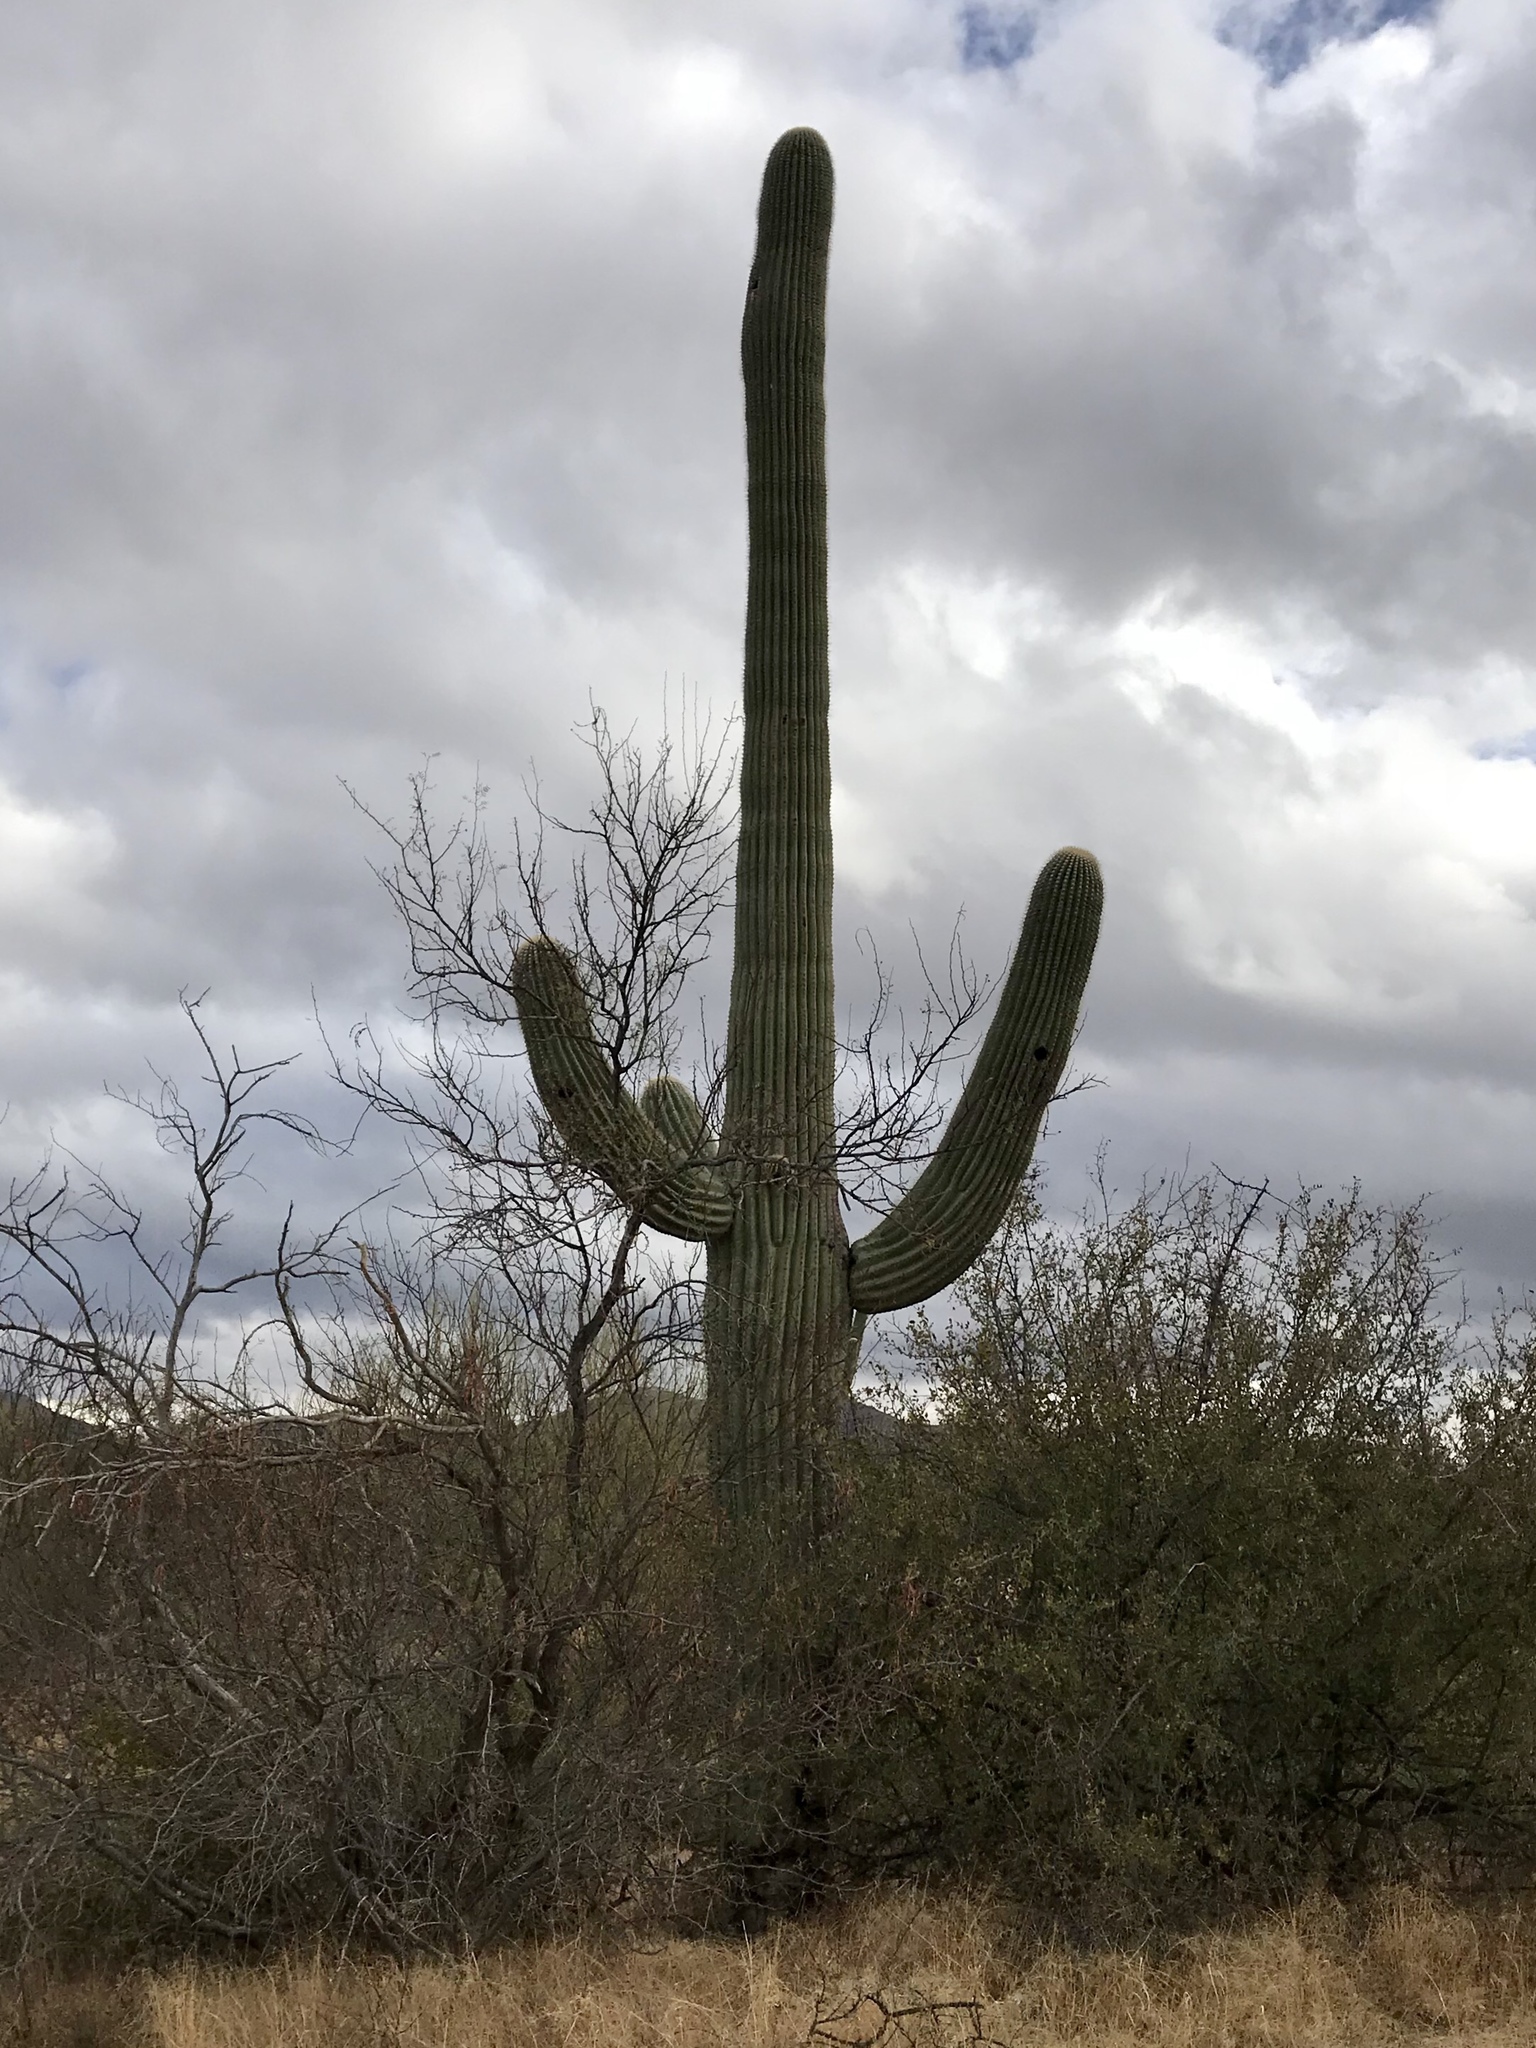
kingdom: Plantae
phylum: Tracheophyta
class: Magnoliopsida
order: Caryophyllales
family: Cactaceae
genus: Carnegiea
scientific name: Carnegiea gigantea
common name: Saguaro
